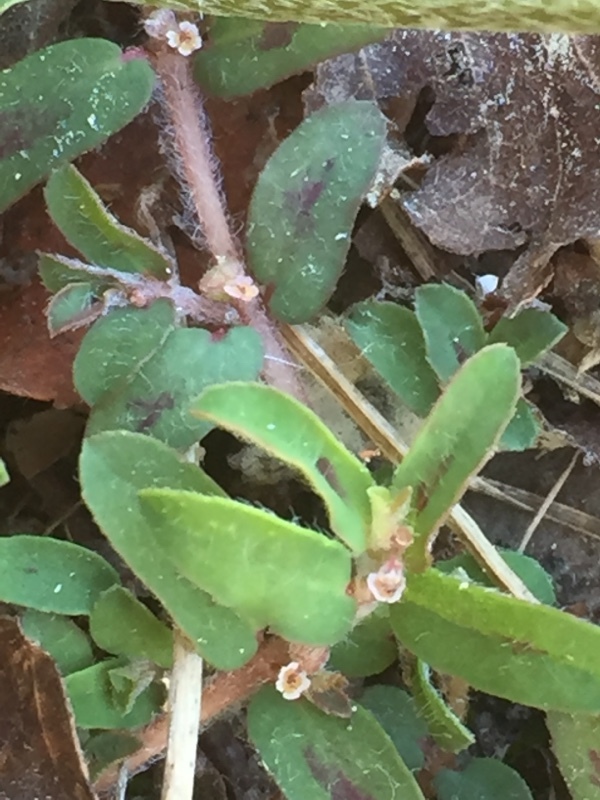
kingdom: Plantae
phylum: Tracheophyta
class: Magnoliopsida
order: Malpighiales
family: Euphorbiaceae
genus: Euphorbia
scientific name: Euphorbia maculata
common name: Spotted spurge
